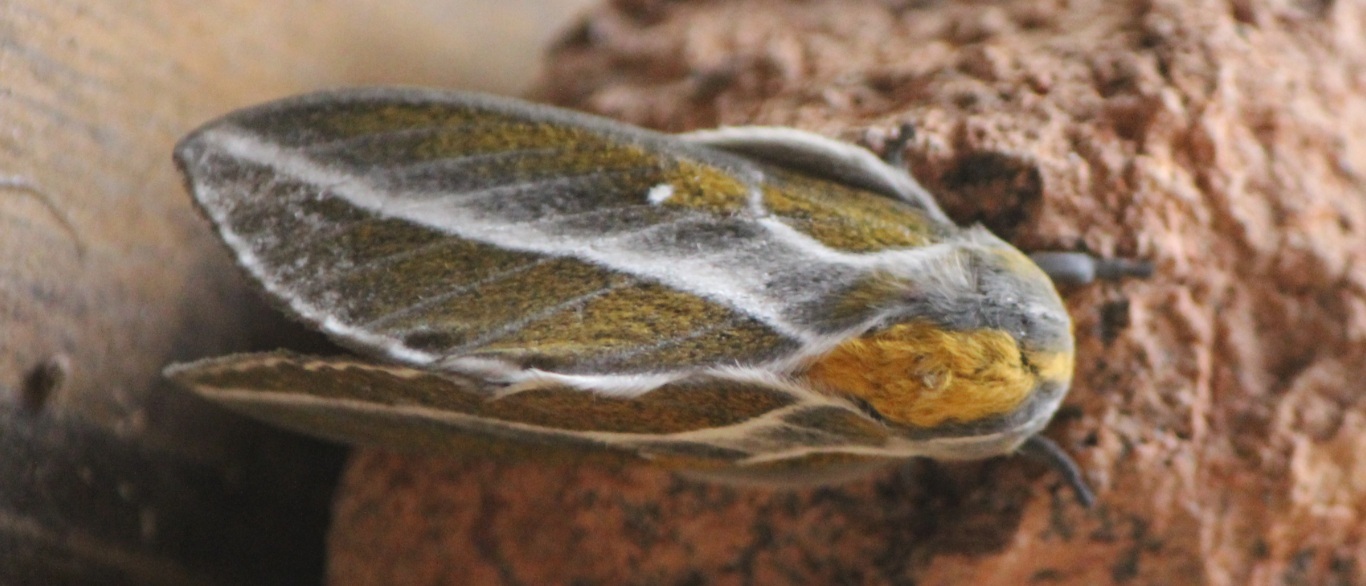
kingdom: Animalia
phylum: Arthropoda
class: Insecta
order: Lepidoptera
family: Saturniidae
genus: Syssphinx
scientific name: Syssphinx albolineata
